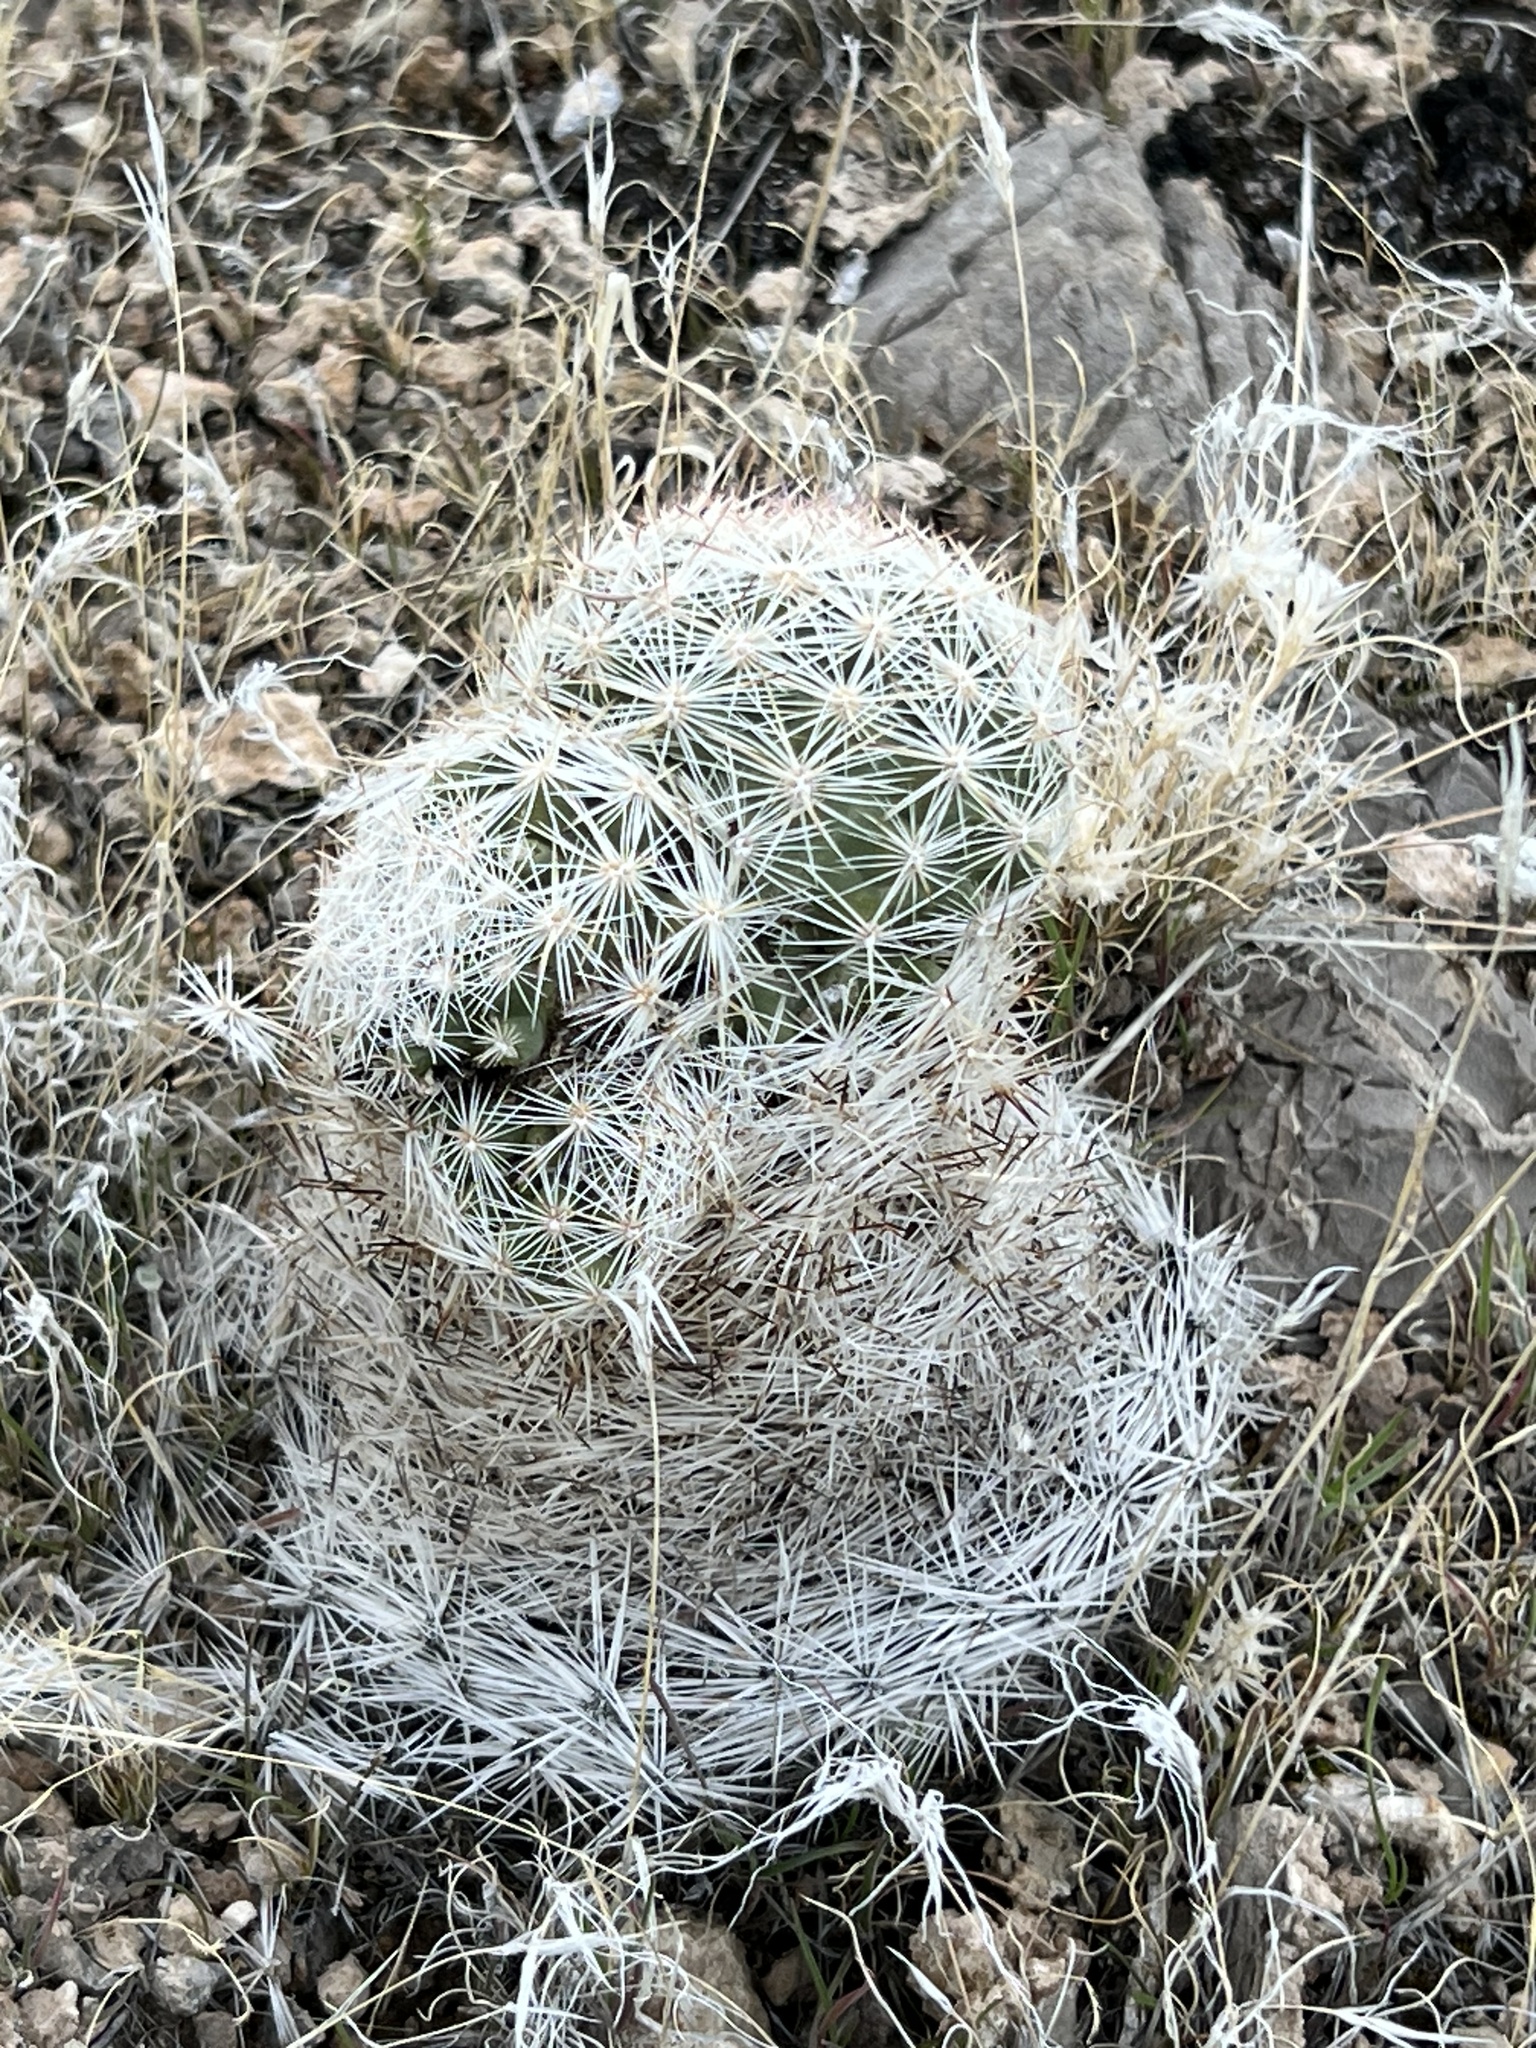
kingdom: Plantae
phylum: Tracheophyta
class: Magnoliopsida
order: Caryophyllales
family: Cactaceae
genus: Pelecyphora
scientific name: Pelecyphora dasyacantha
